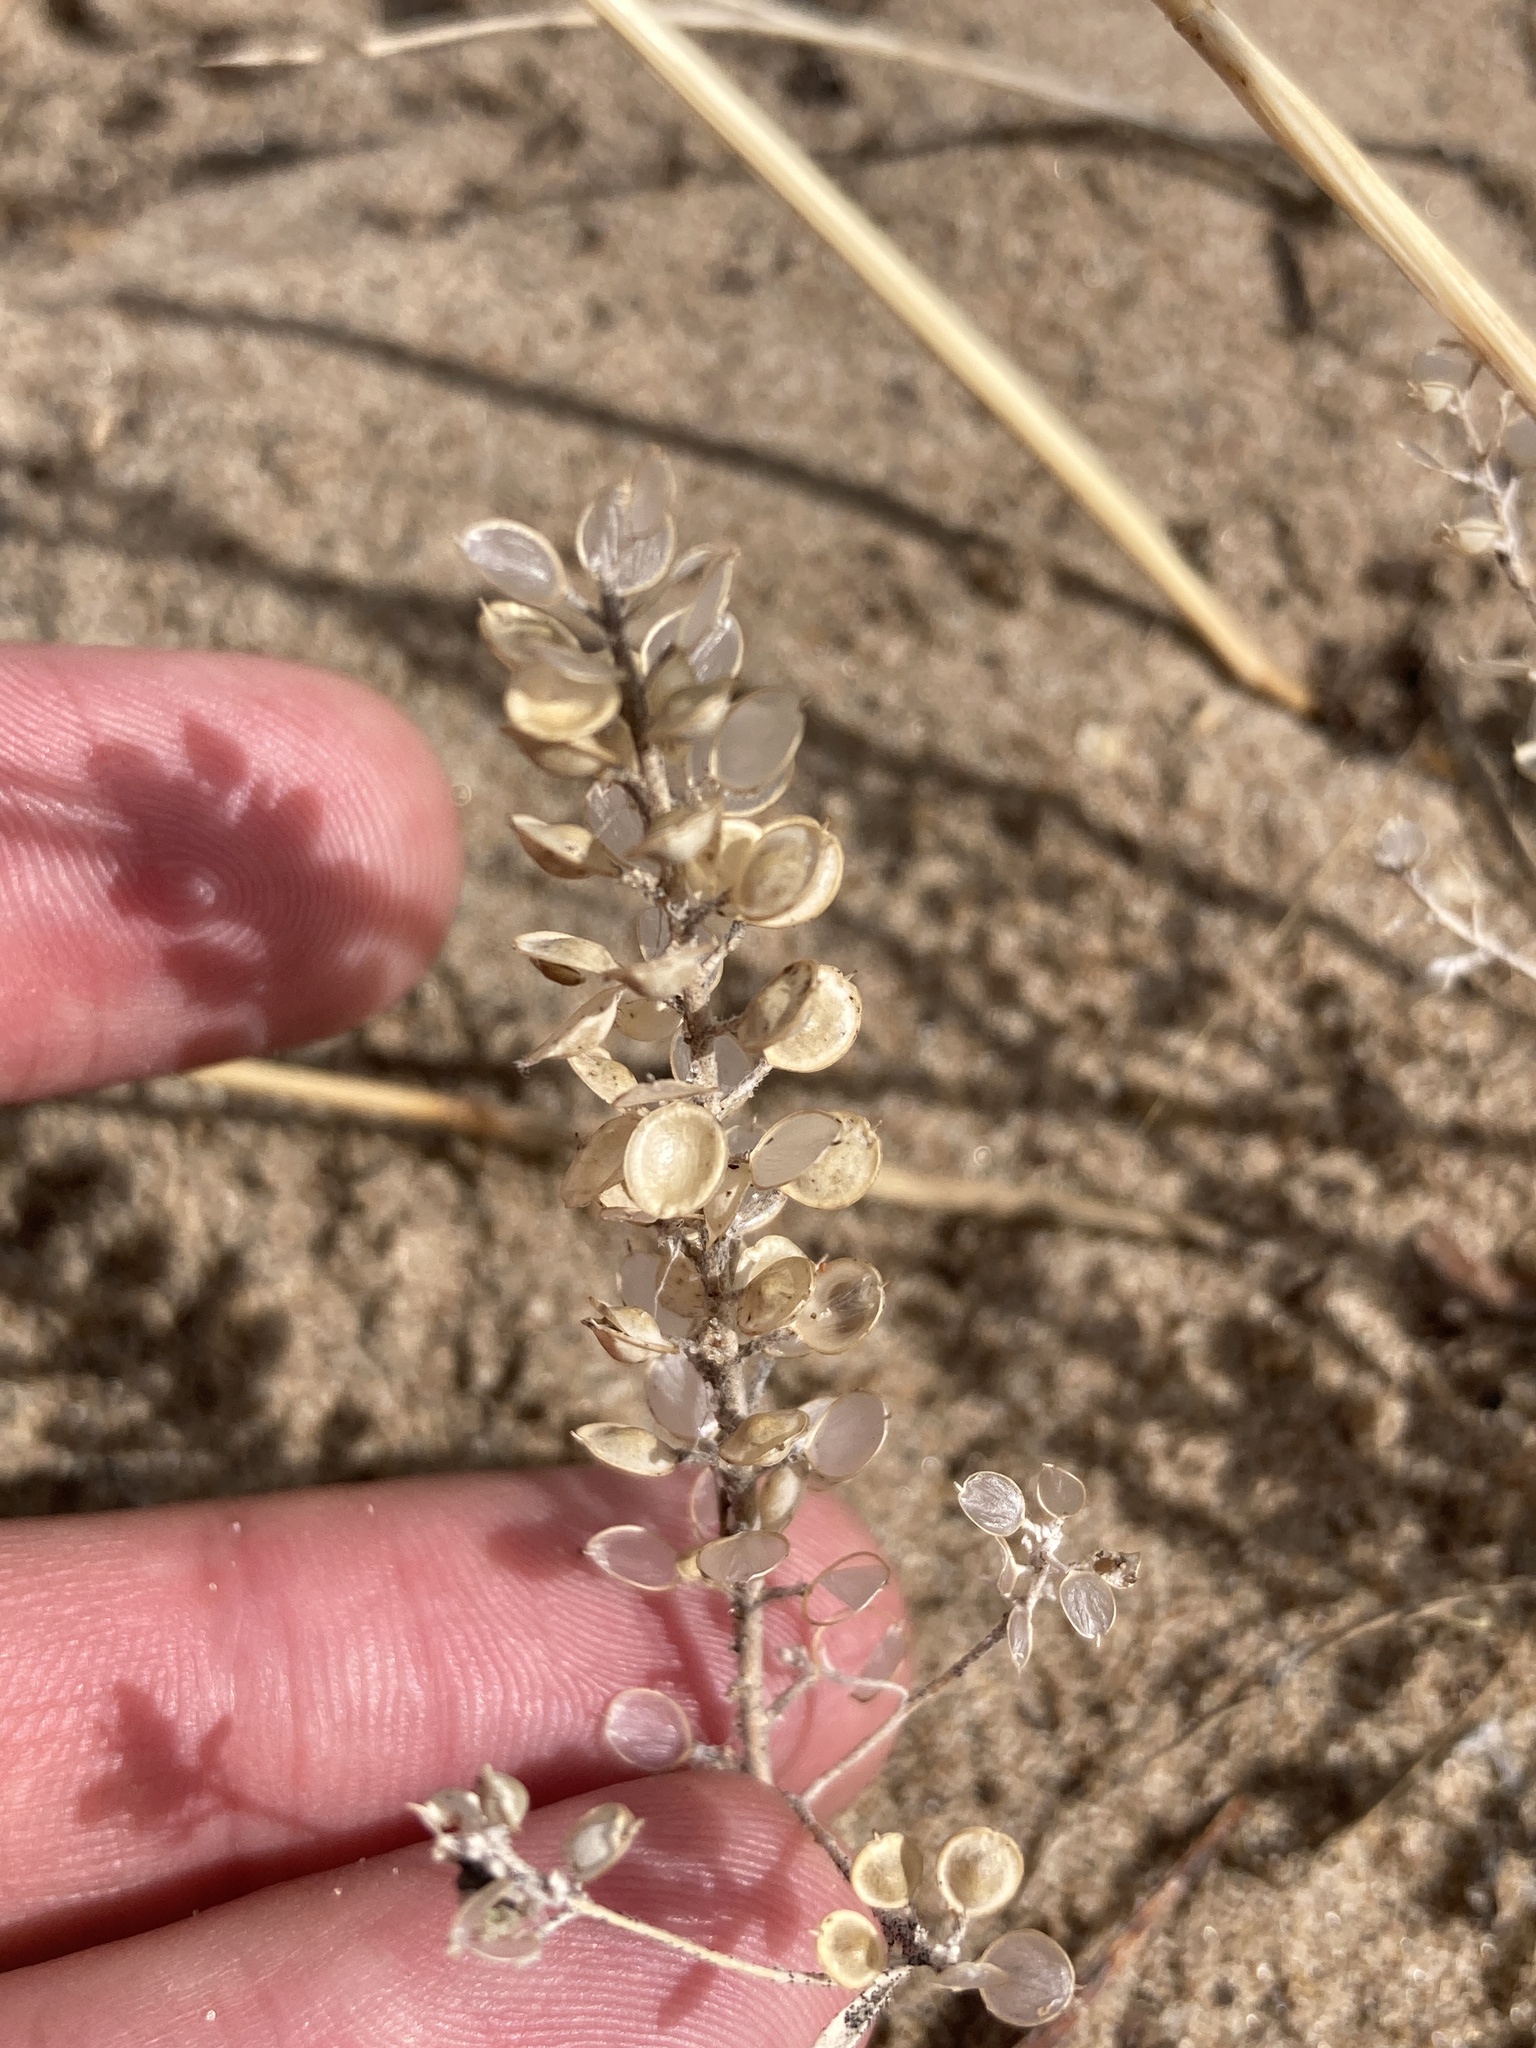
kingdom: Plantae
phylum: Tracheophyta
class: Magnoliopsida
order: Brassicales
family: Brassicaceae
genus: Alyssum
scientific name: Alyssum turkestanicum
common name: Desert alyssum
